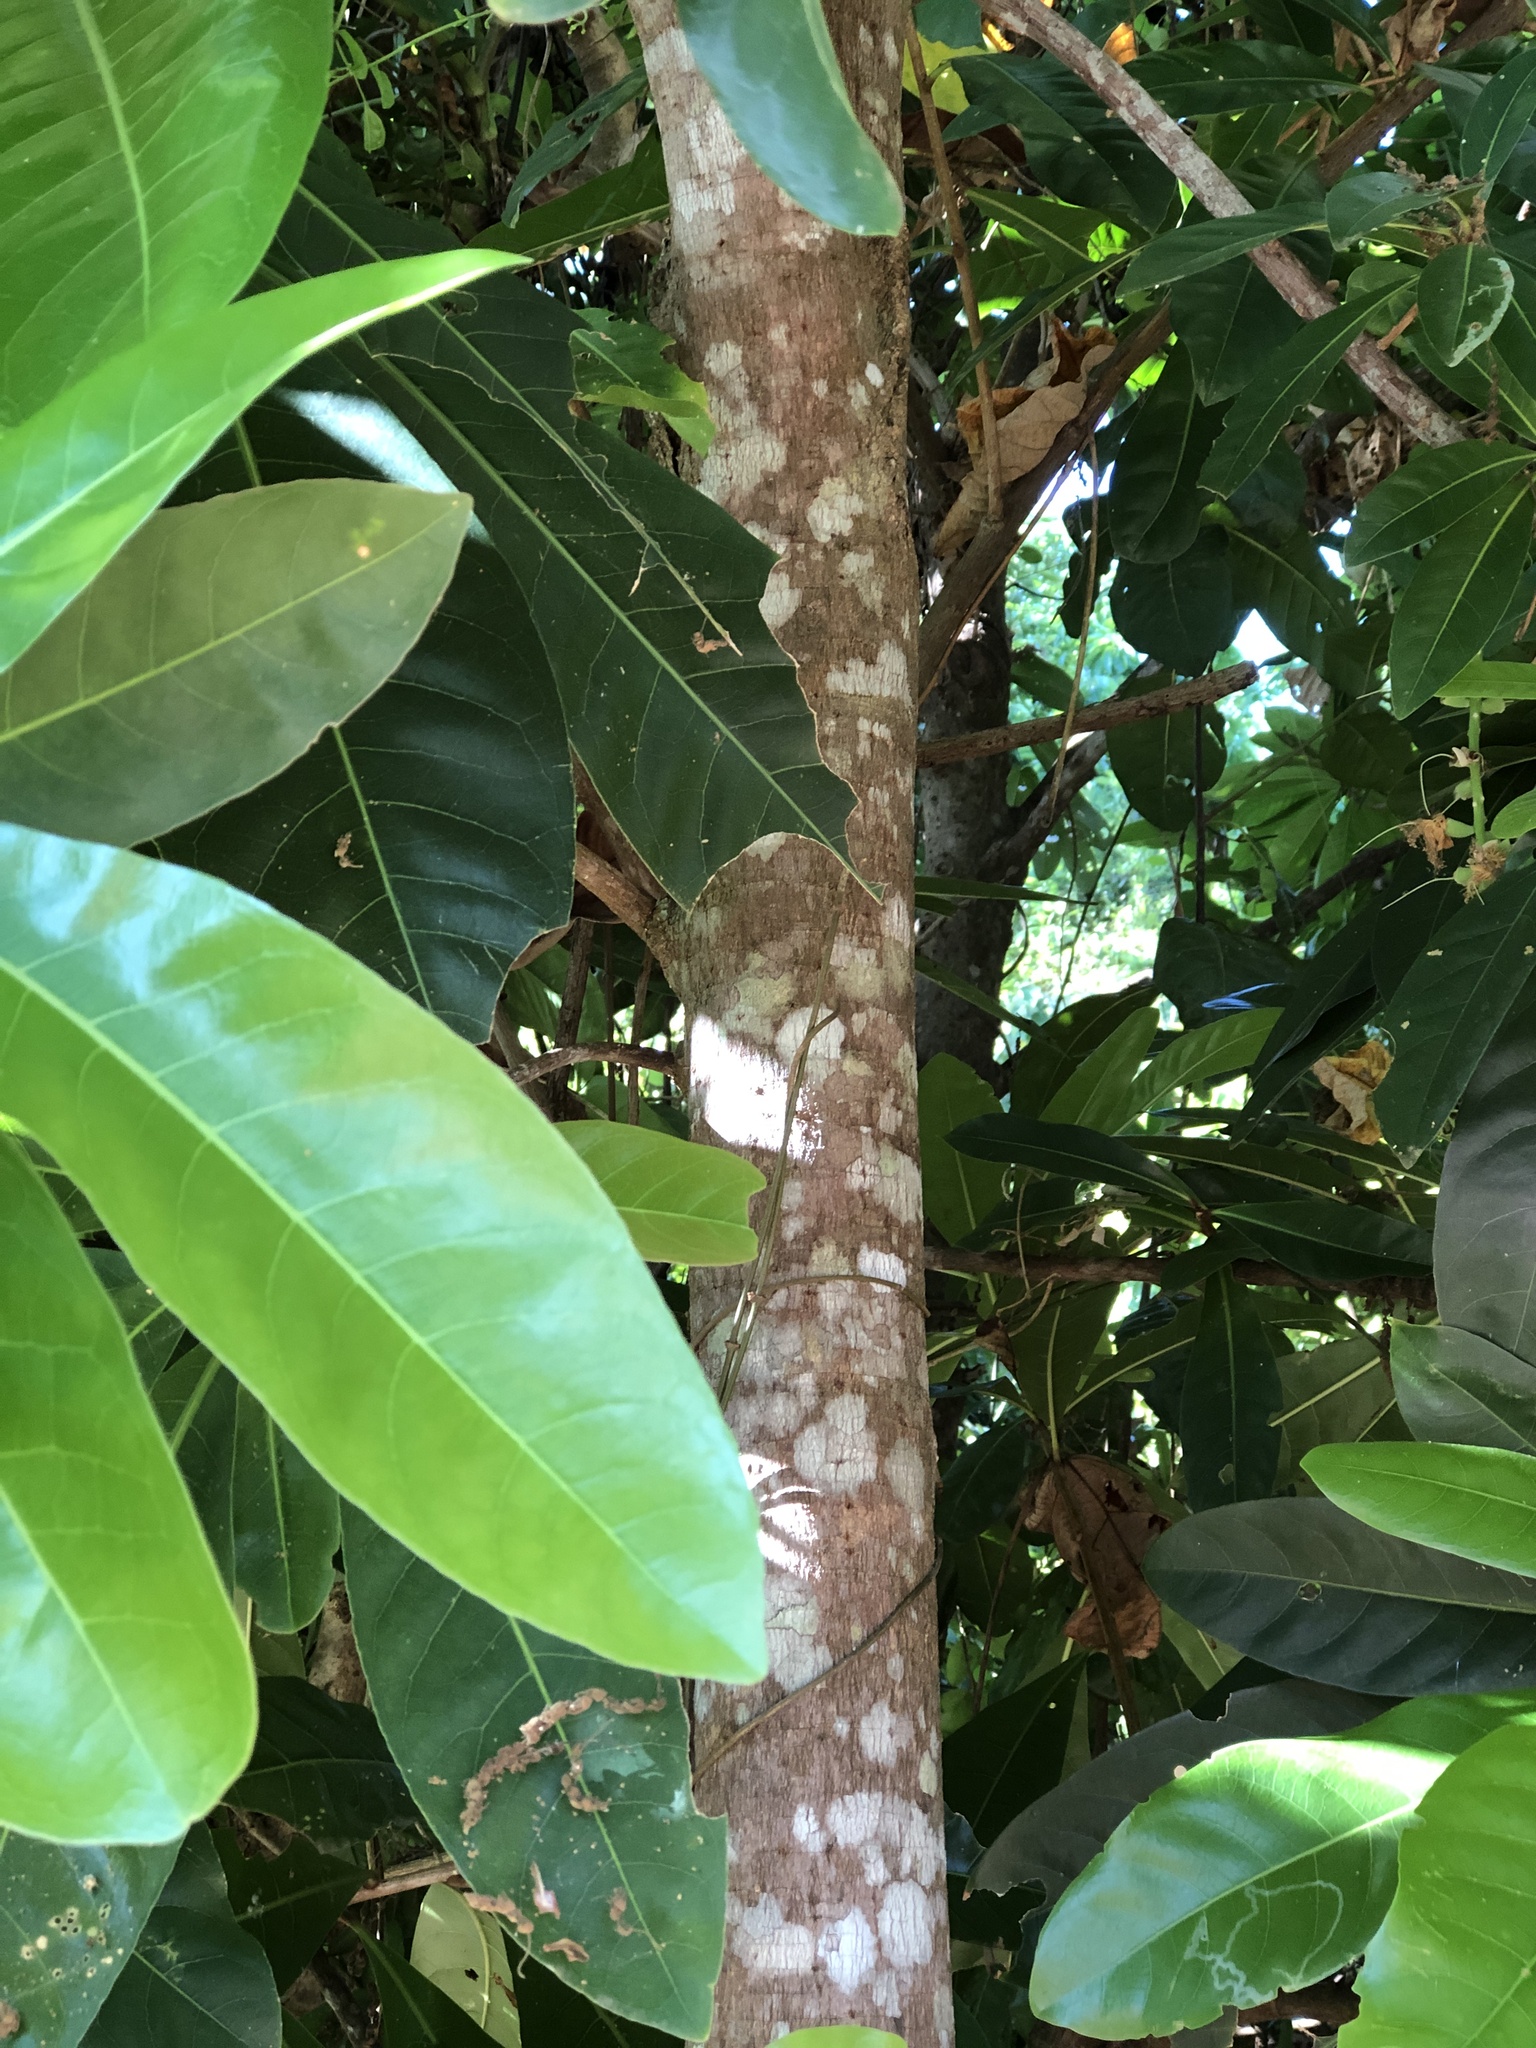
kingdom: Plantae
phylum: Tracheophyta
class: Magnoliopsida
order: Ericales
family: Lecythidaceae
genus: Barringtonia
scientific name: Barringtonia racemosa
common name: Brackwater mangrove
